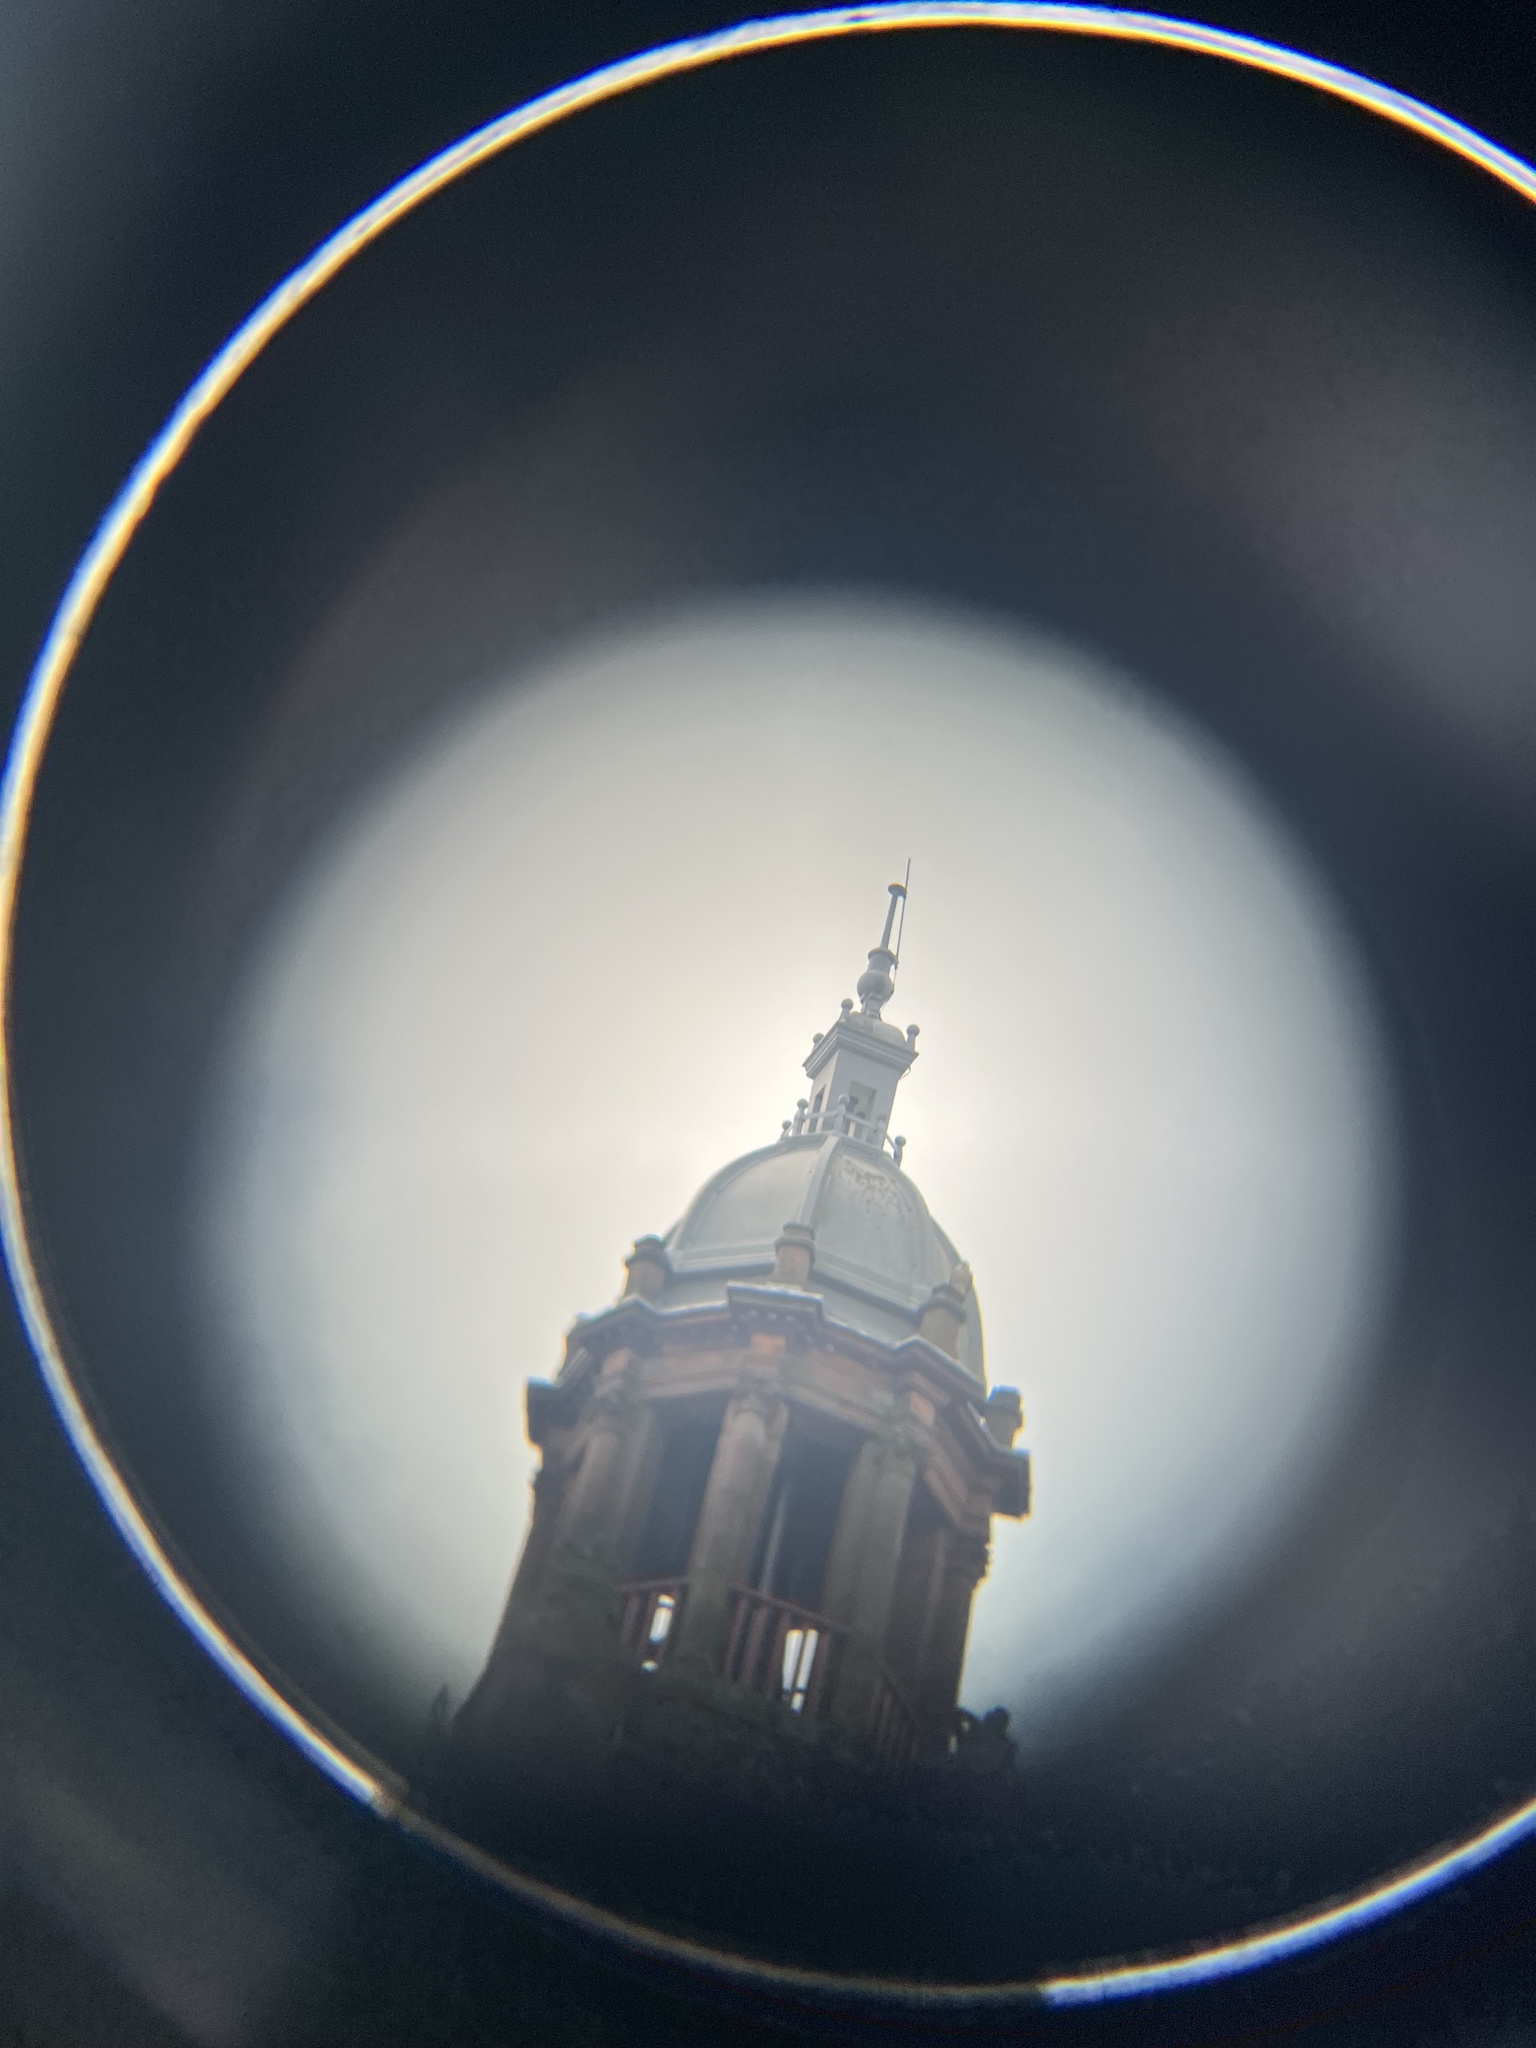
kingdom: Animalia
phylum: Chordata
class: Aves
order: Falconiformes
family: Falconidae
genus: Falco
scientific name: Falco peregrinus
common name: Peregrine falcon
